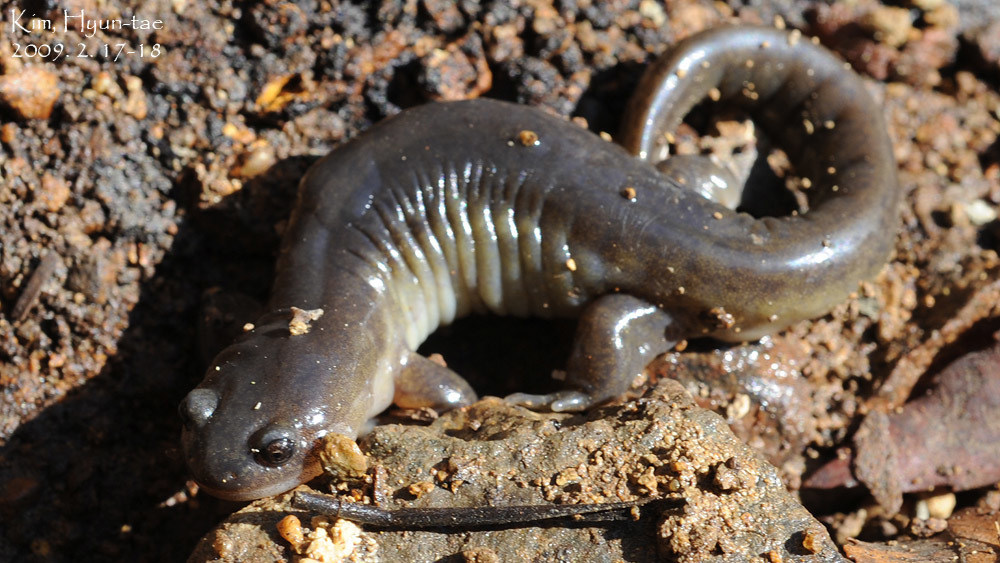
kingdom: Animalia
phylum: Chordata
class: Amphibia
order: Caudata
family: Hynobiidae
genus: Hynobius
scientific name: Hynobius yangi
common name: Yangi salamander
